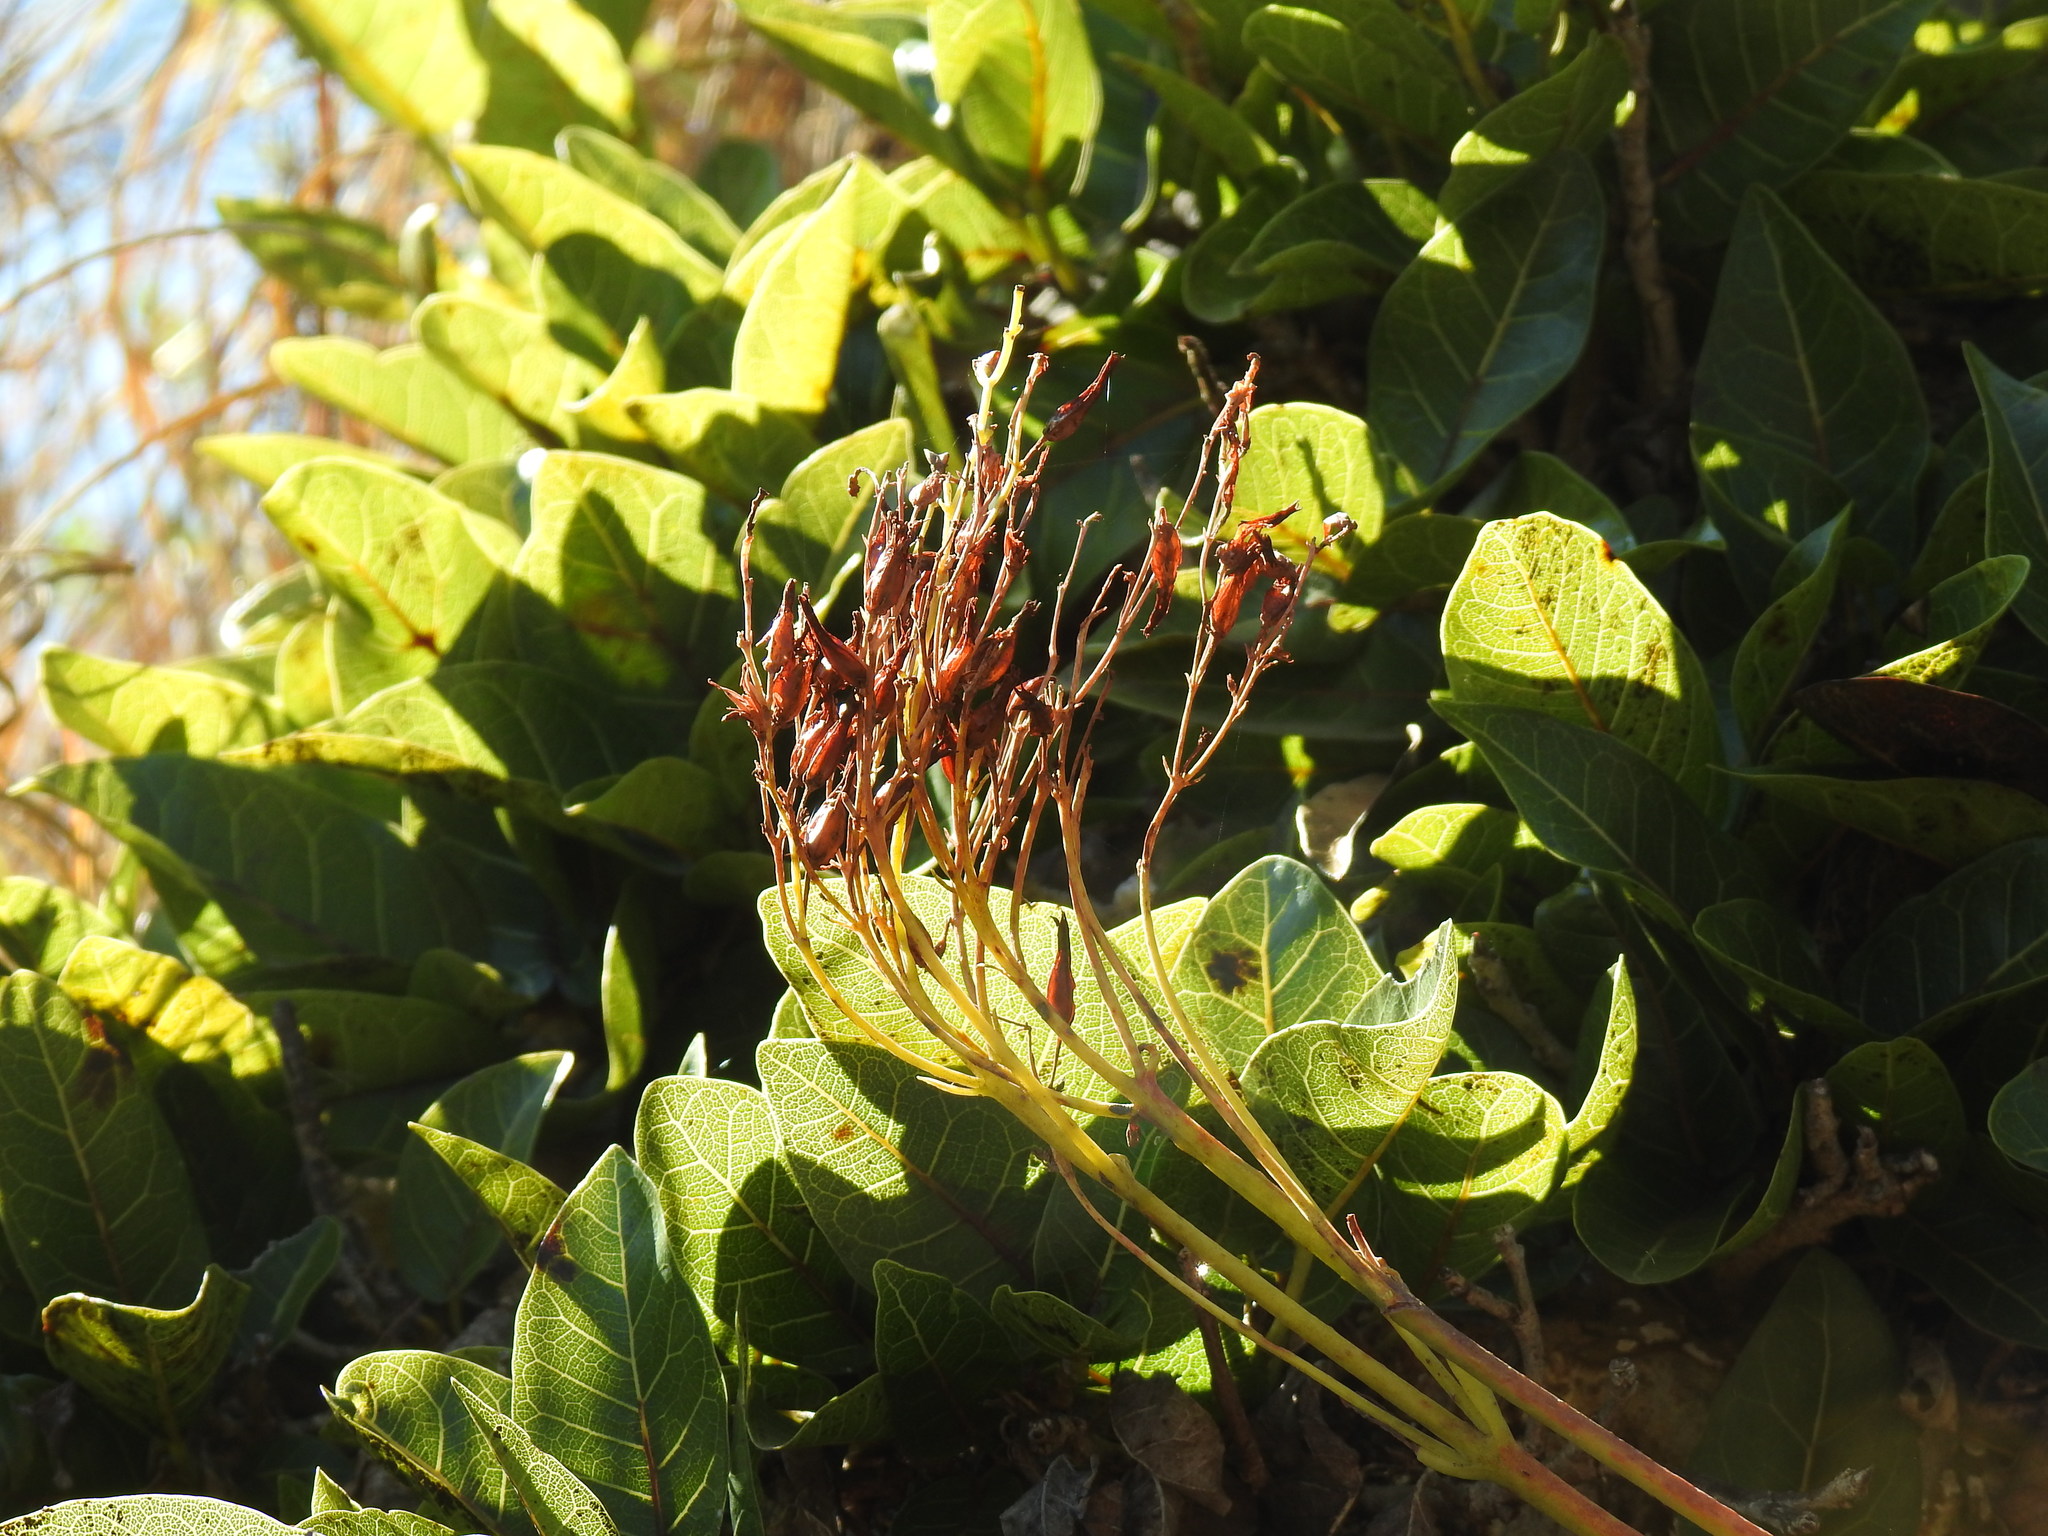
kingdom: Plantae
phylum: Tracheophyta
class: Magnoliopsida
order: Saxifragales
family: Crassulaceae
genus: Kalanchoe
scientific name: Kalanchoe paniculata
